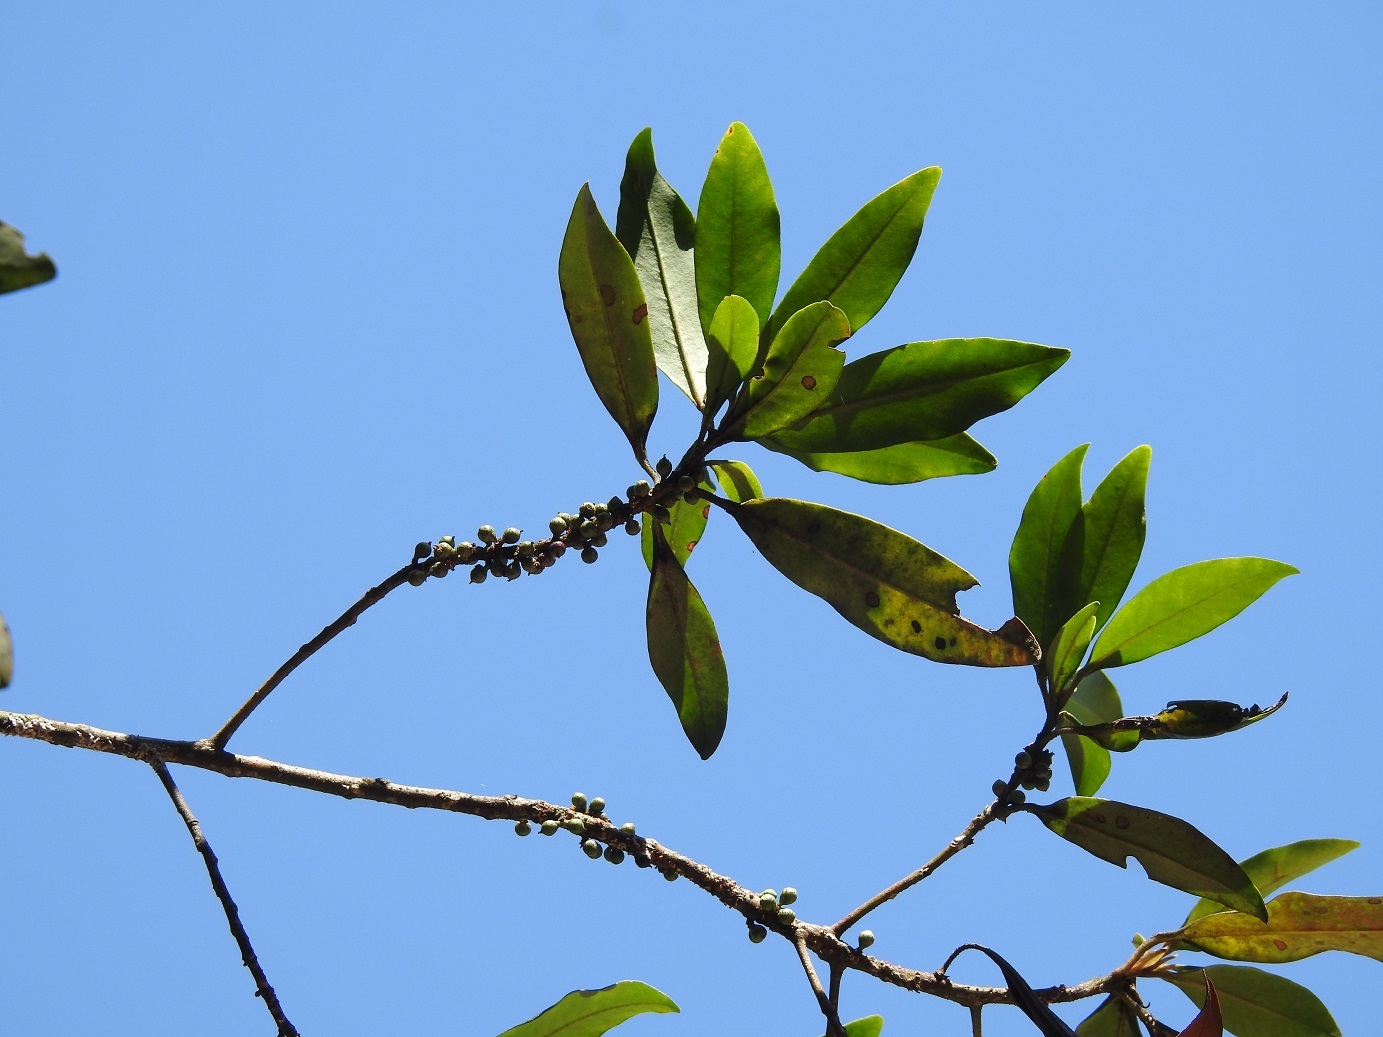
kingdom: Plantae
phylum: Tracheophyta
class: Magnoliopsida
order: Ericales
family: Primulaceae
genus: Myrsine
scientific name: Myrsine coriacea
